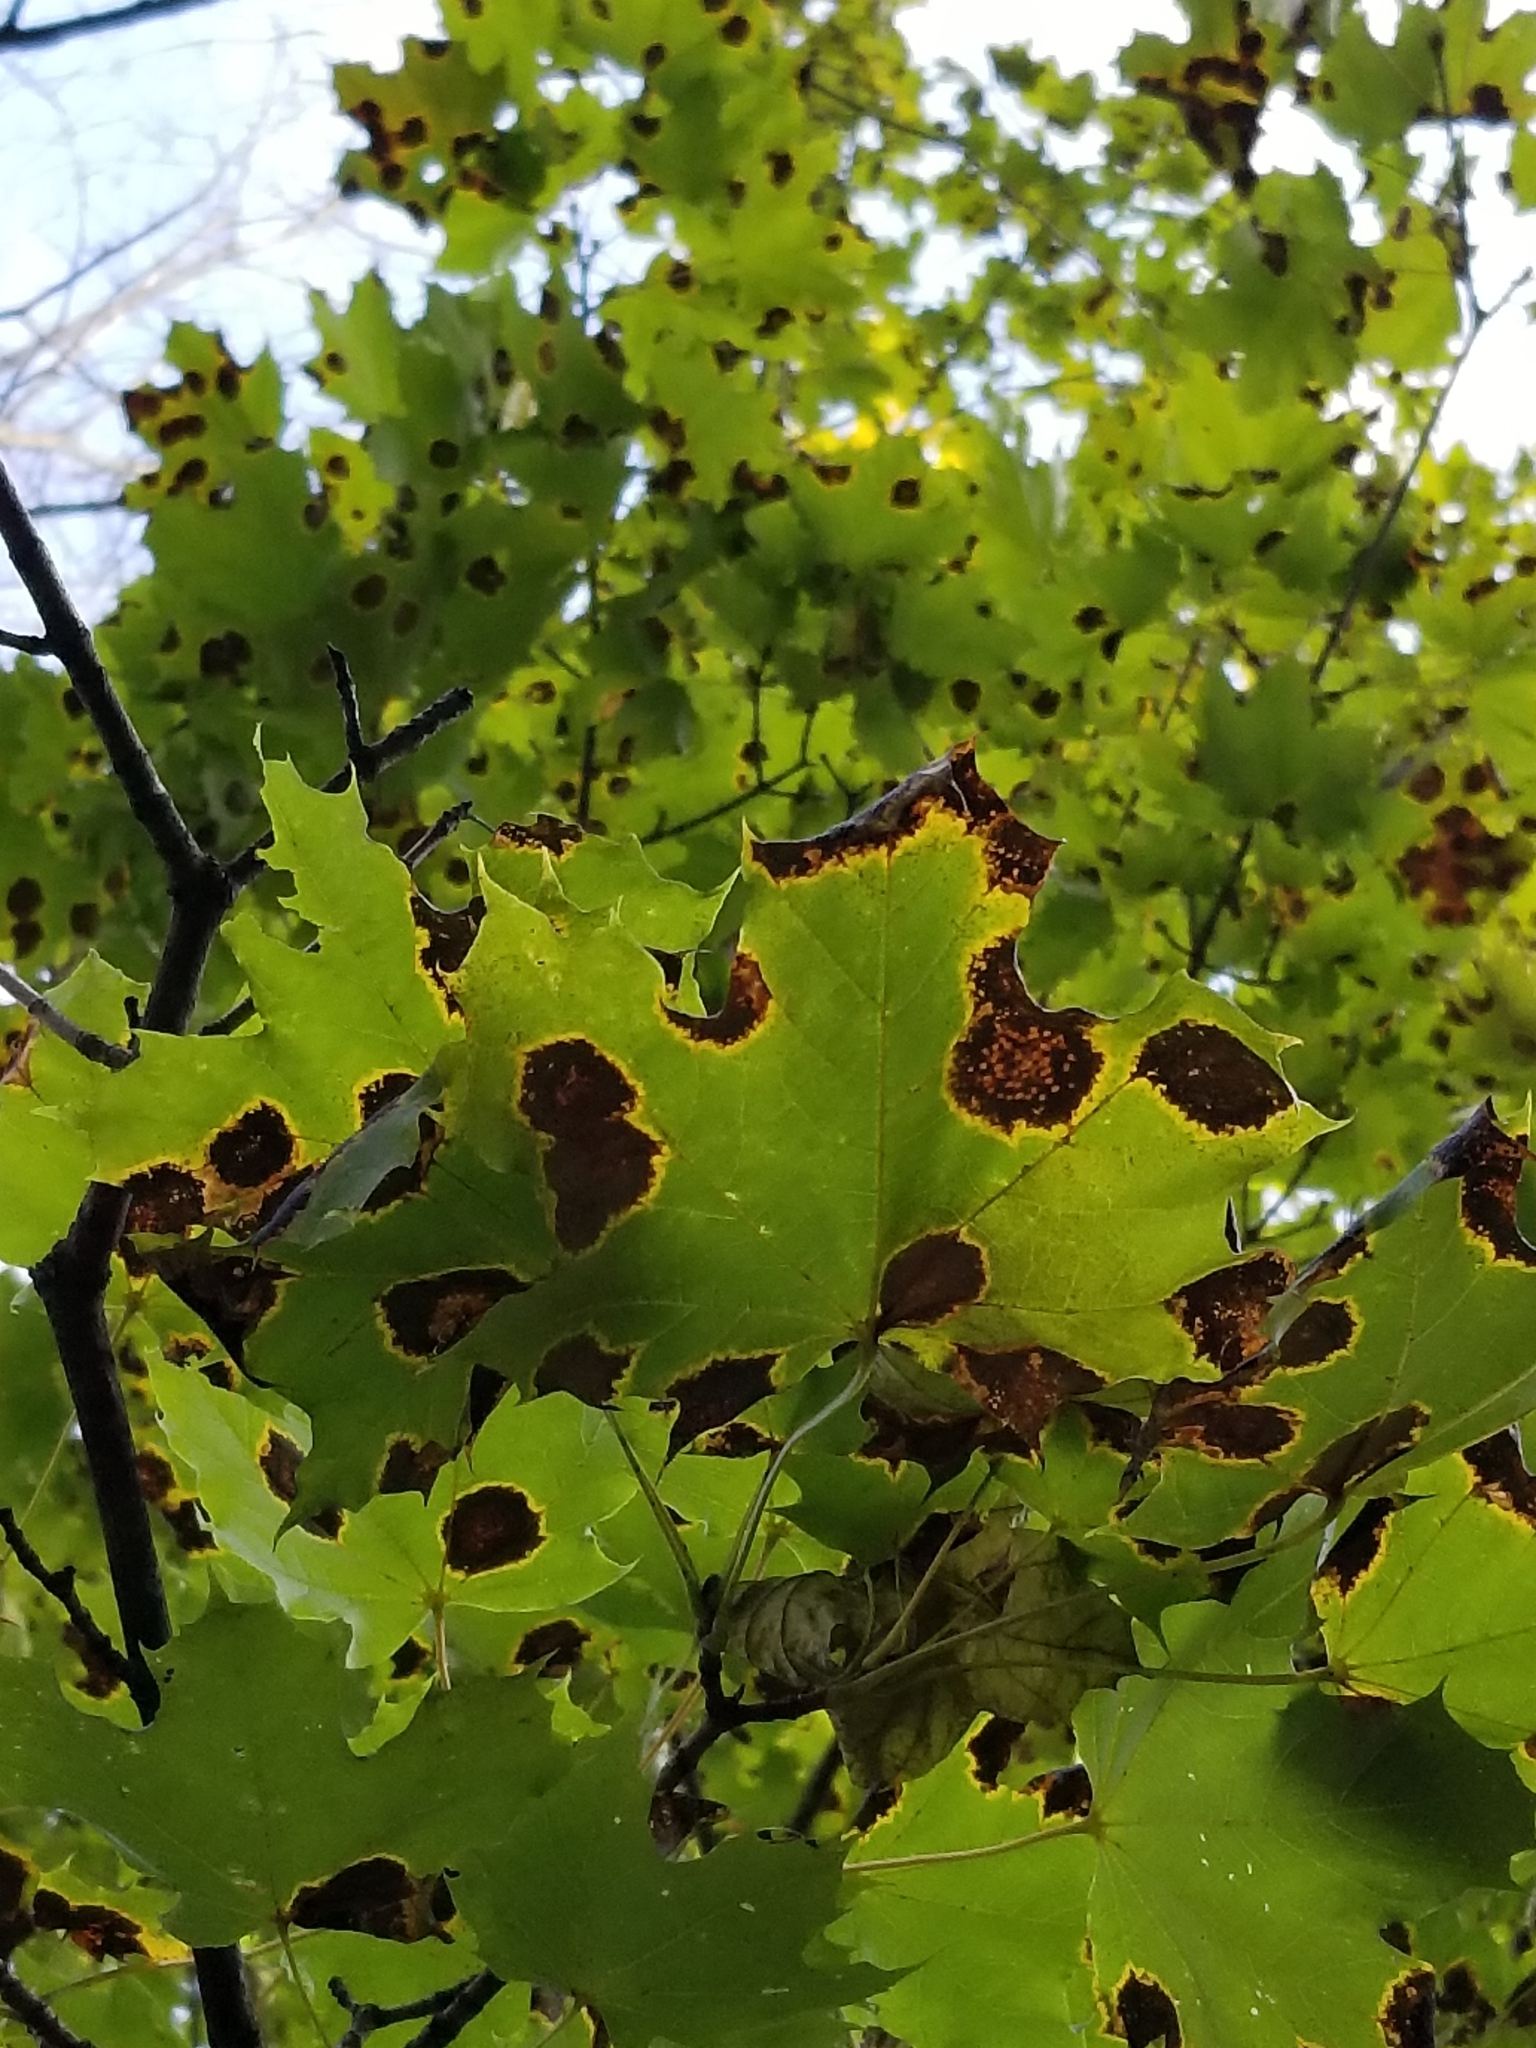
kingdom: Plantae
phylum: Tracheophyta
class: Magnoliopsida
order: Sapindales
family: Sapindaceae
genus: Acer
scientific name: Acer platanoides
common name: Norway maple
